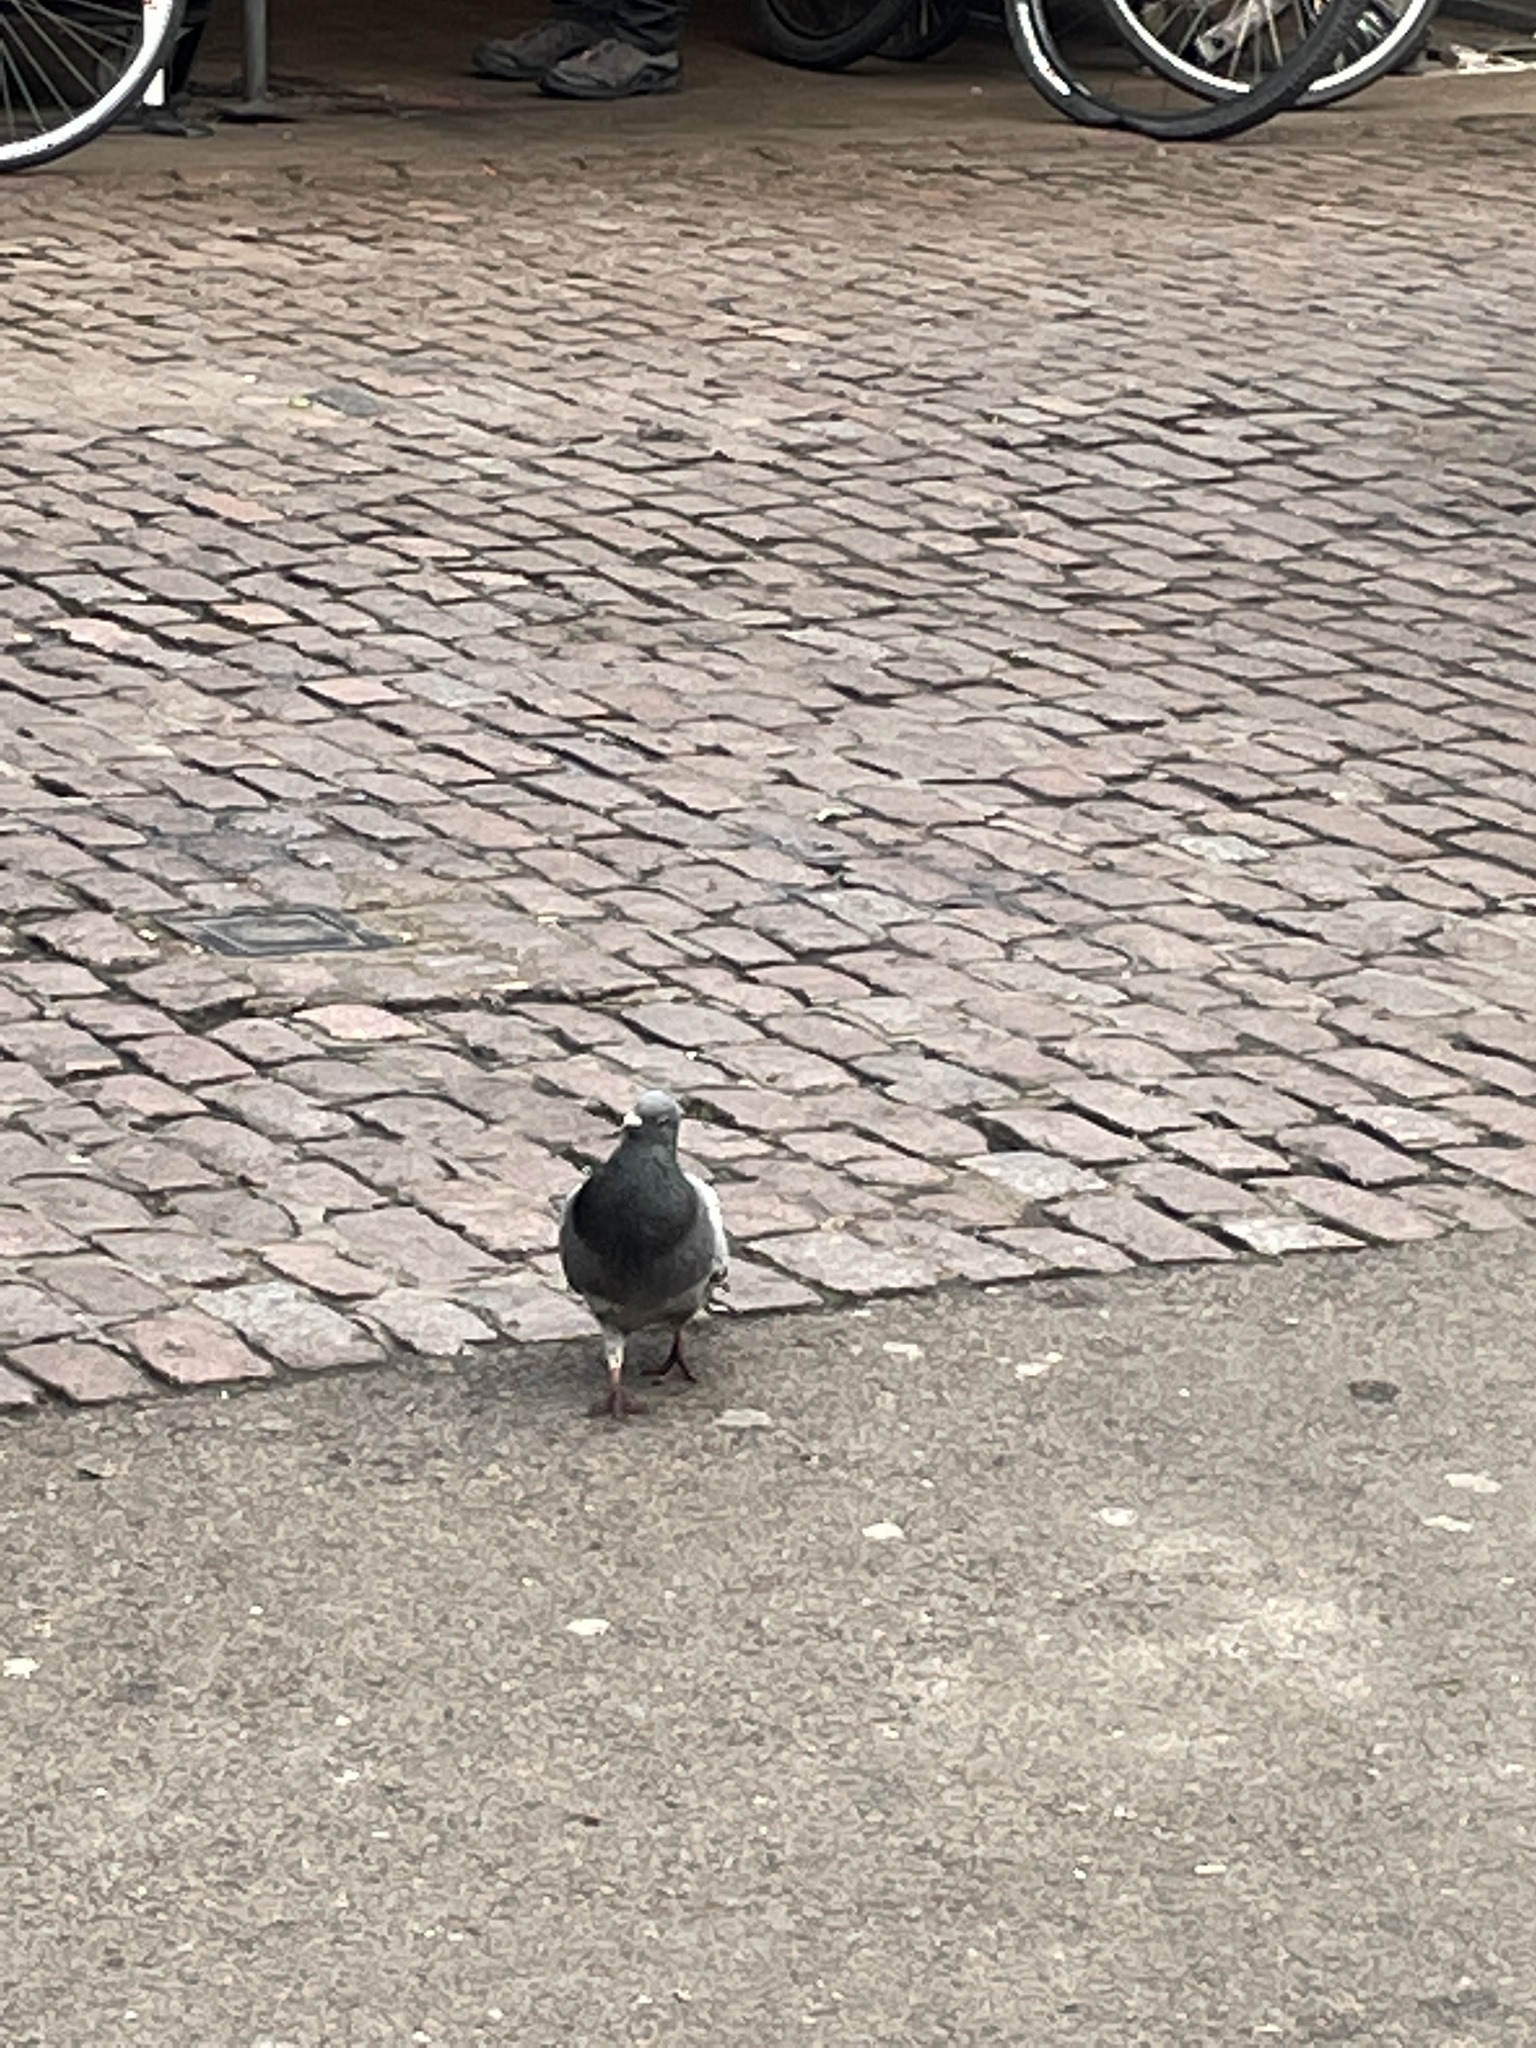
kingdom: Animalia
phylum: Chordata
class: Aves
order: Columbiformes
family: Columbidae
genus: Columba
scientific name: Columba livia
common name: Rock pigeon
